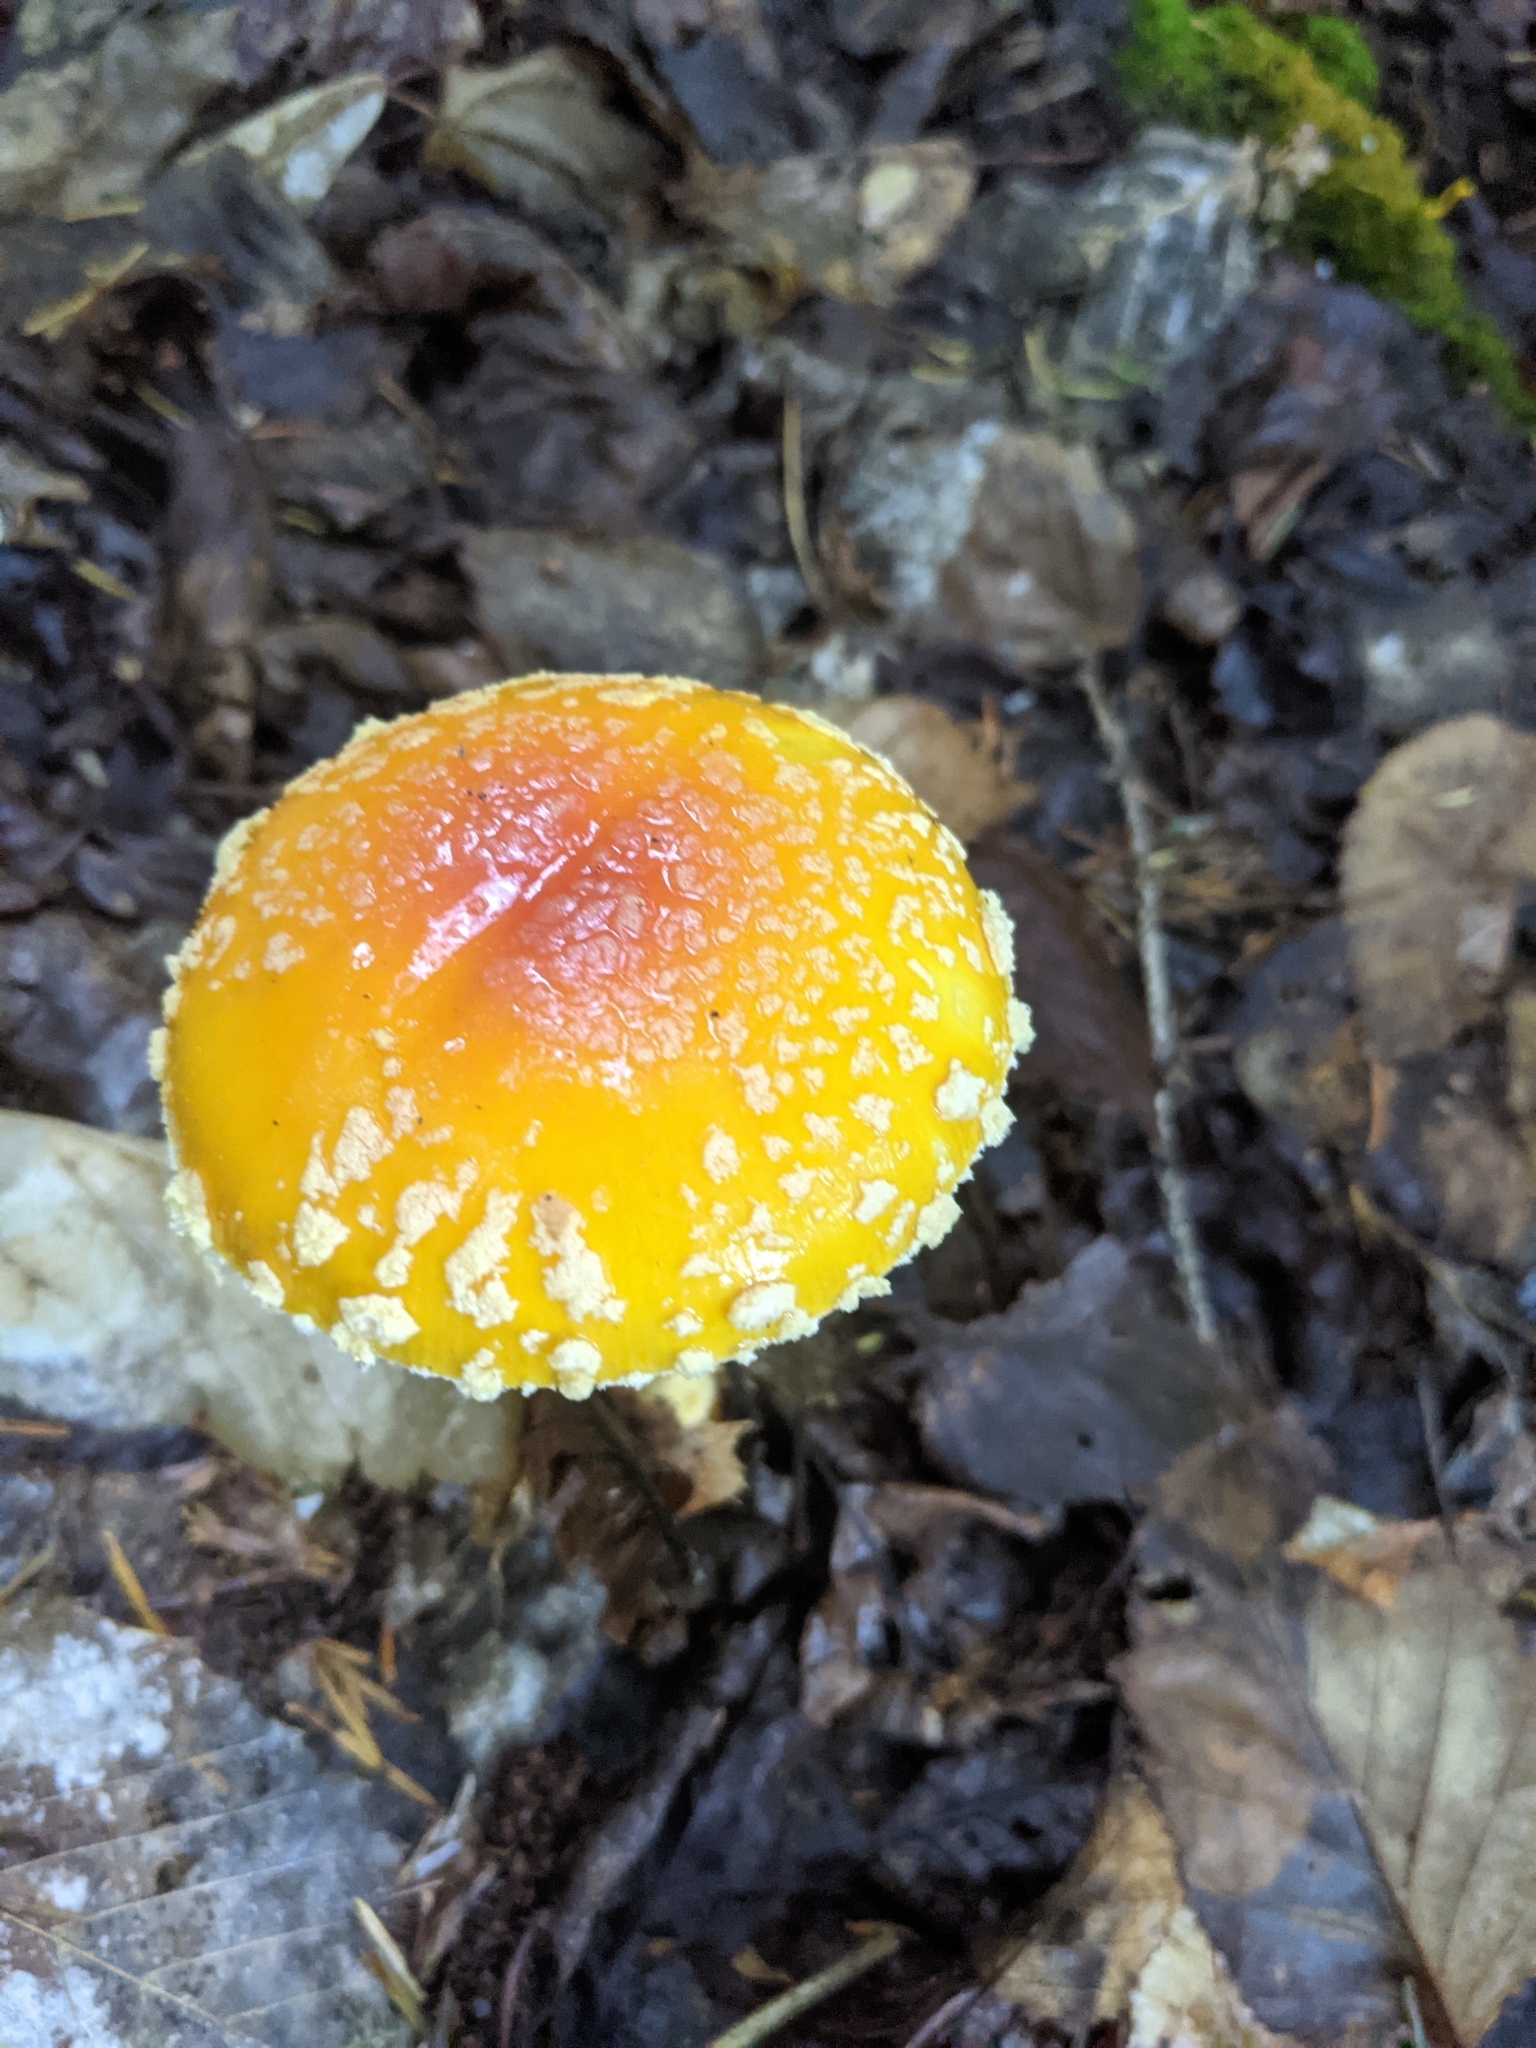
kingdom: Fungi
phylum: Basidiomycota
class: Agaricomycetes
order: Agaricales
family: Amanitaceae
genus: Amanita
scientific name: Amanita muscaria
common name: Fly agaric
